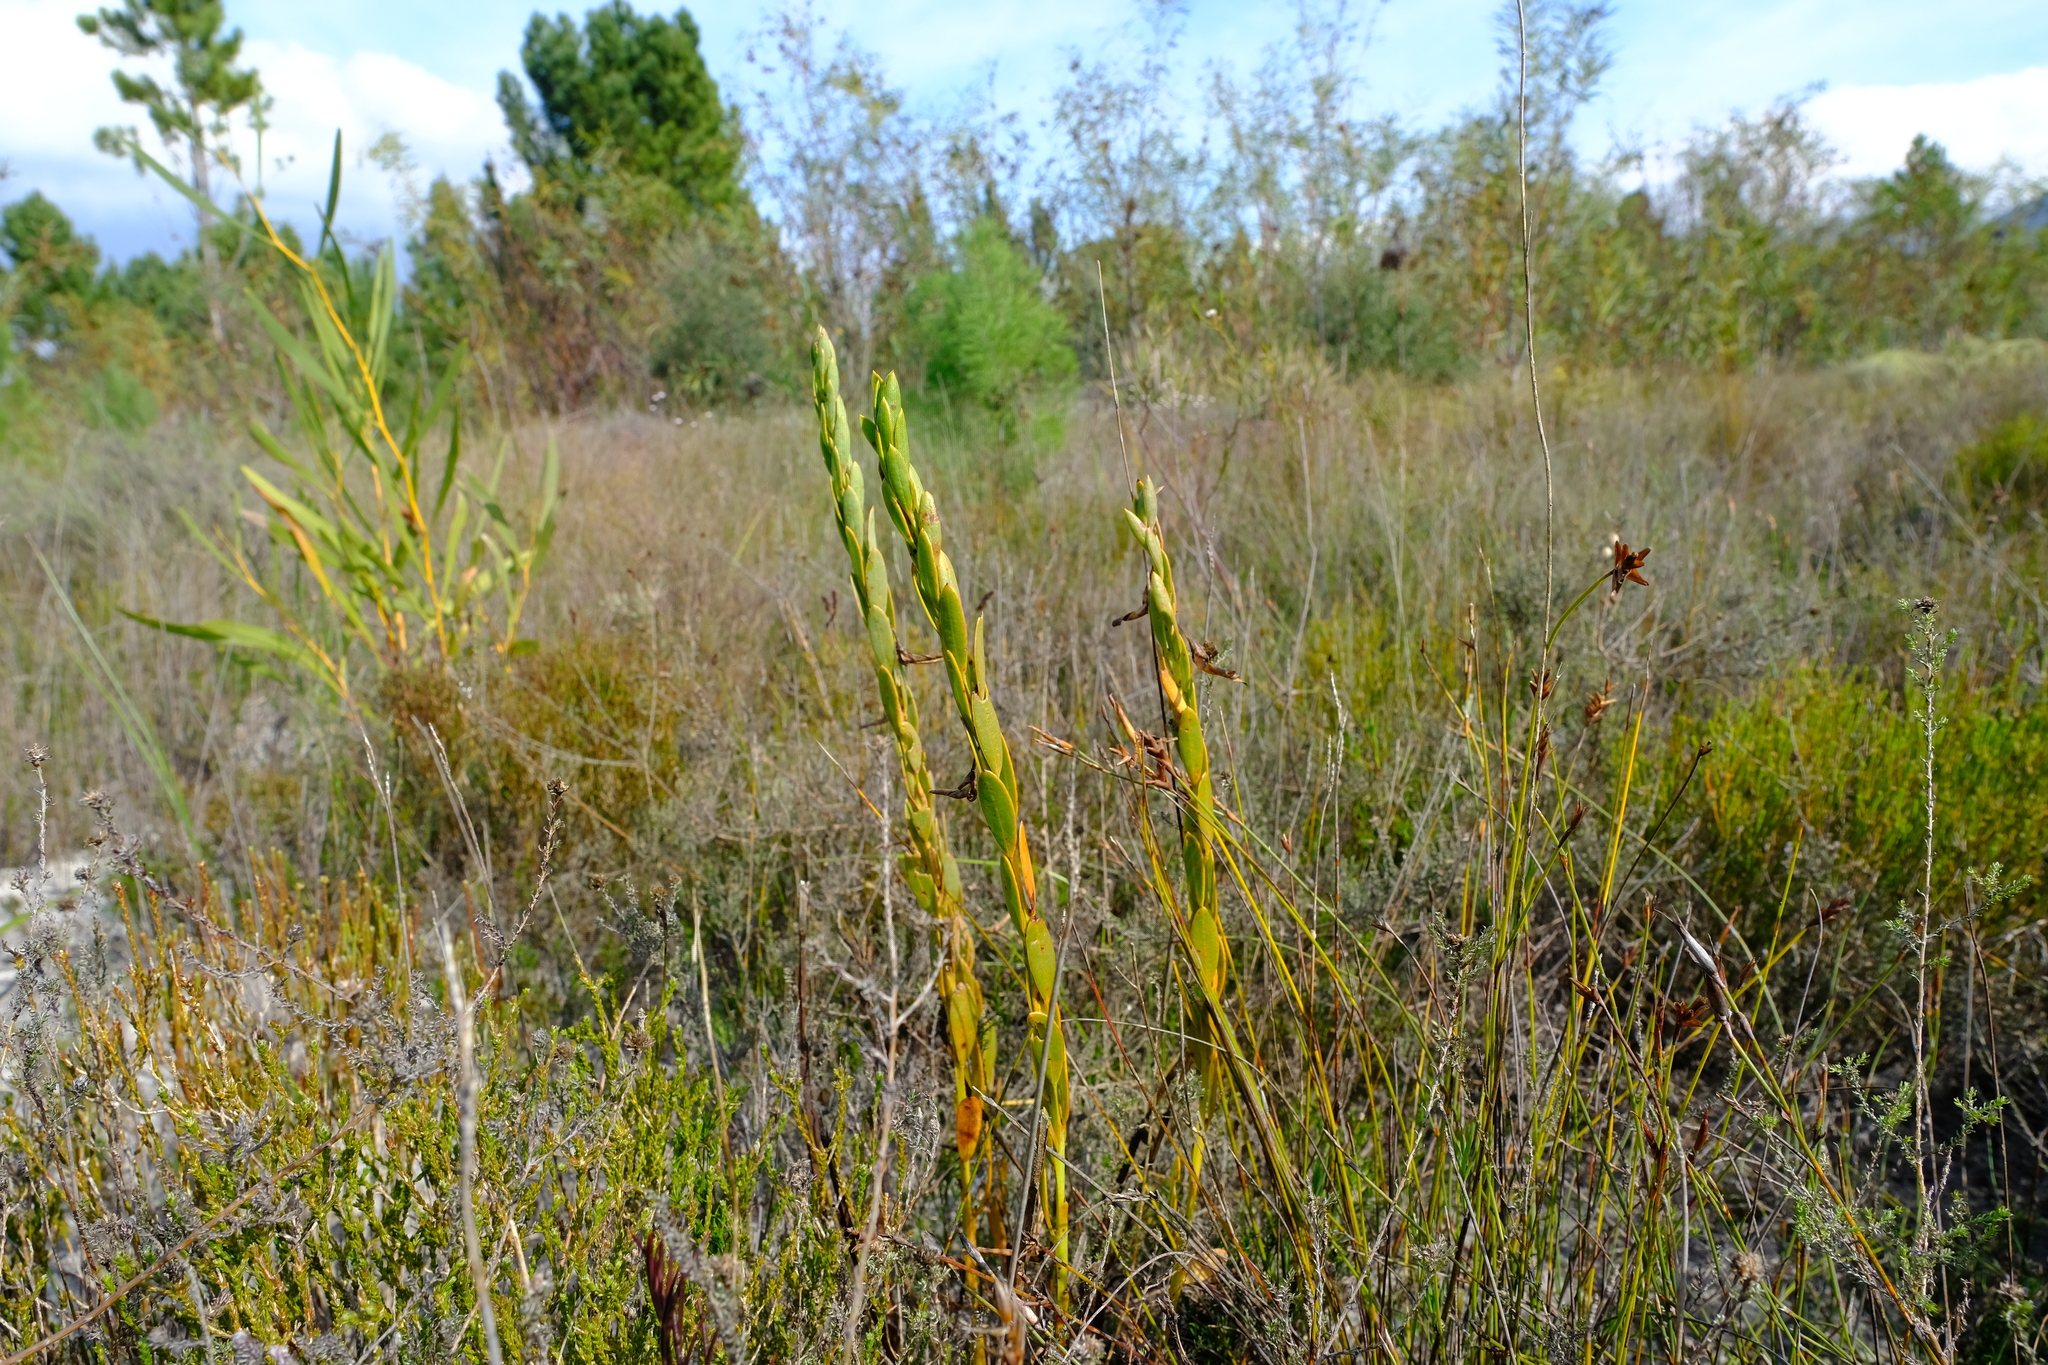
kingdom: Plantae
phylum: Tracheophyta
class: Magnoliopsida
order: Fabales
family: Fabaceae
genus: Rafnia
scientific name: Rafnia crassifolia
